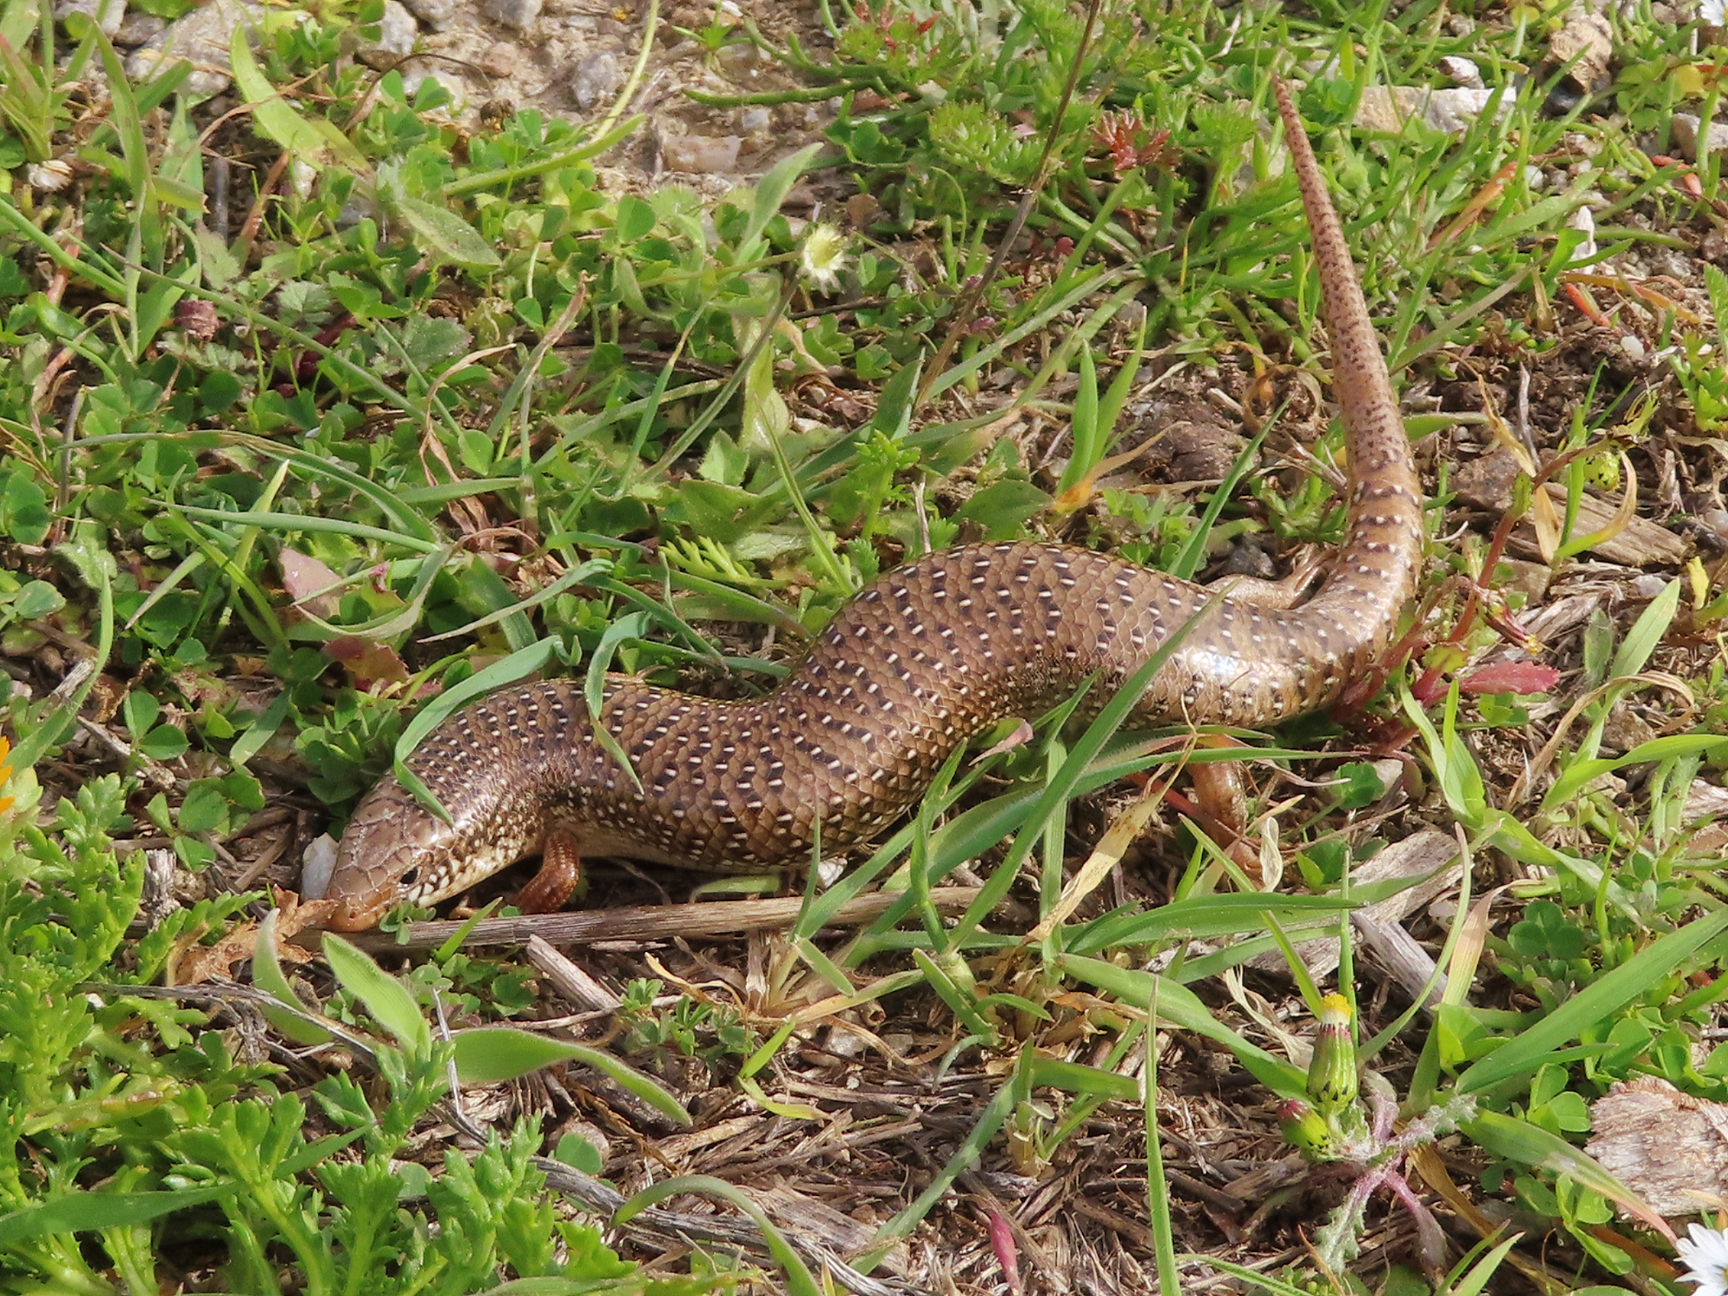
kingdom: Animalia
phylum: Chordata
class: Squamata
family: Scincidae
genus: Chalcides
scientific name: Chalcides ocellatus
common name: Ocellated skink
